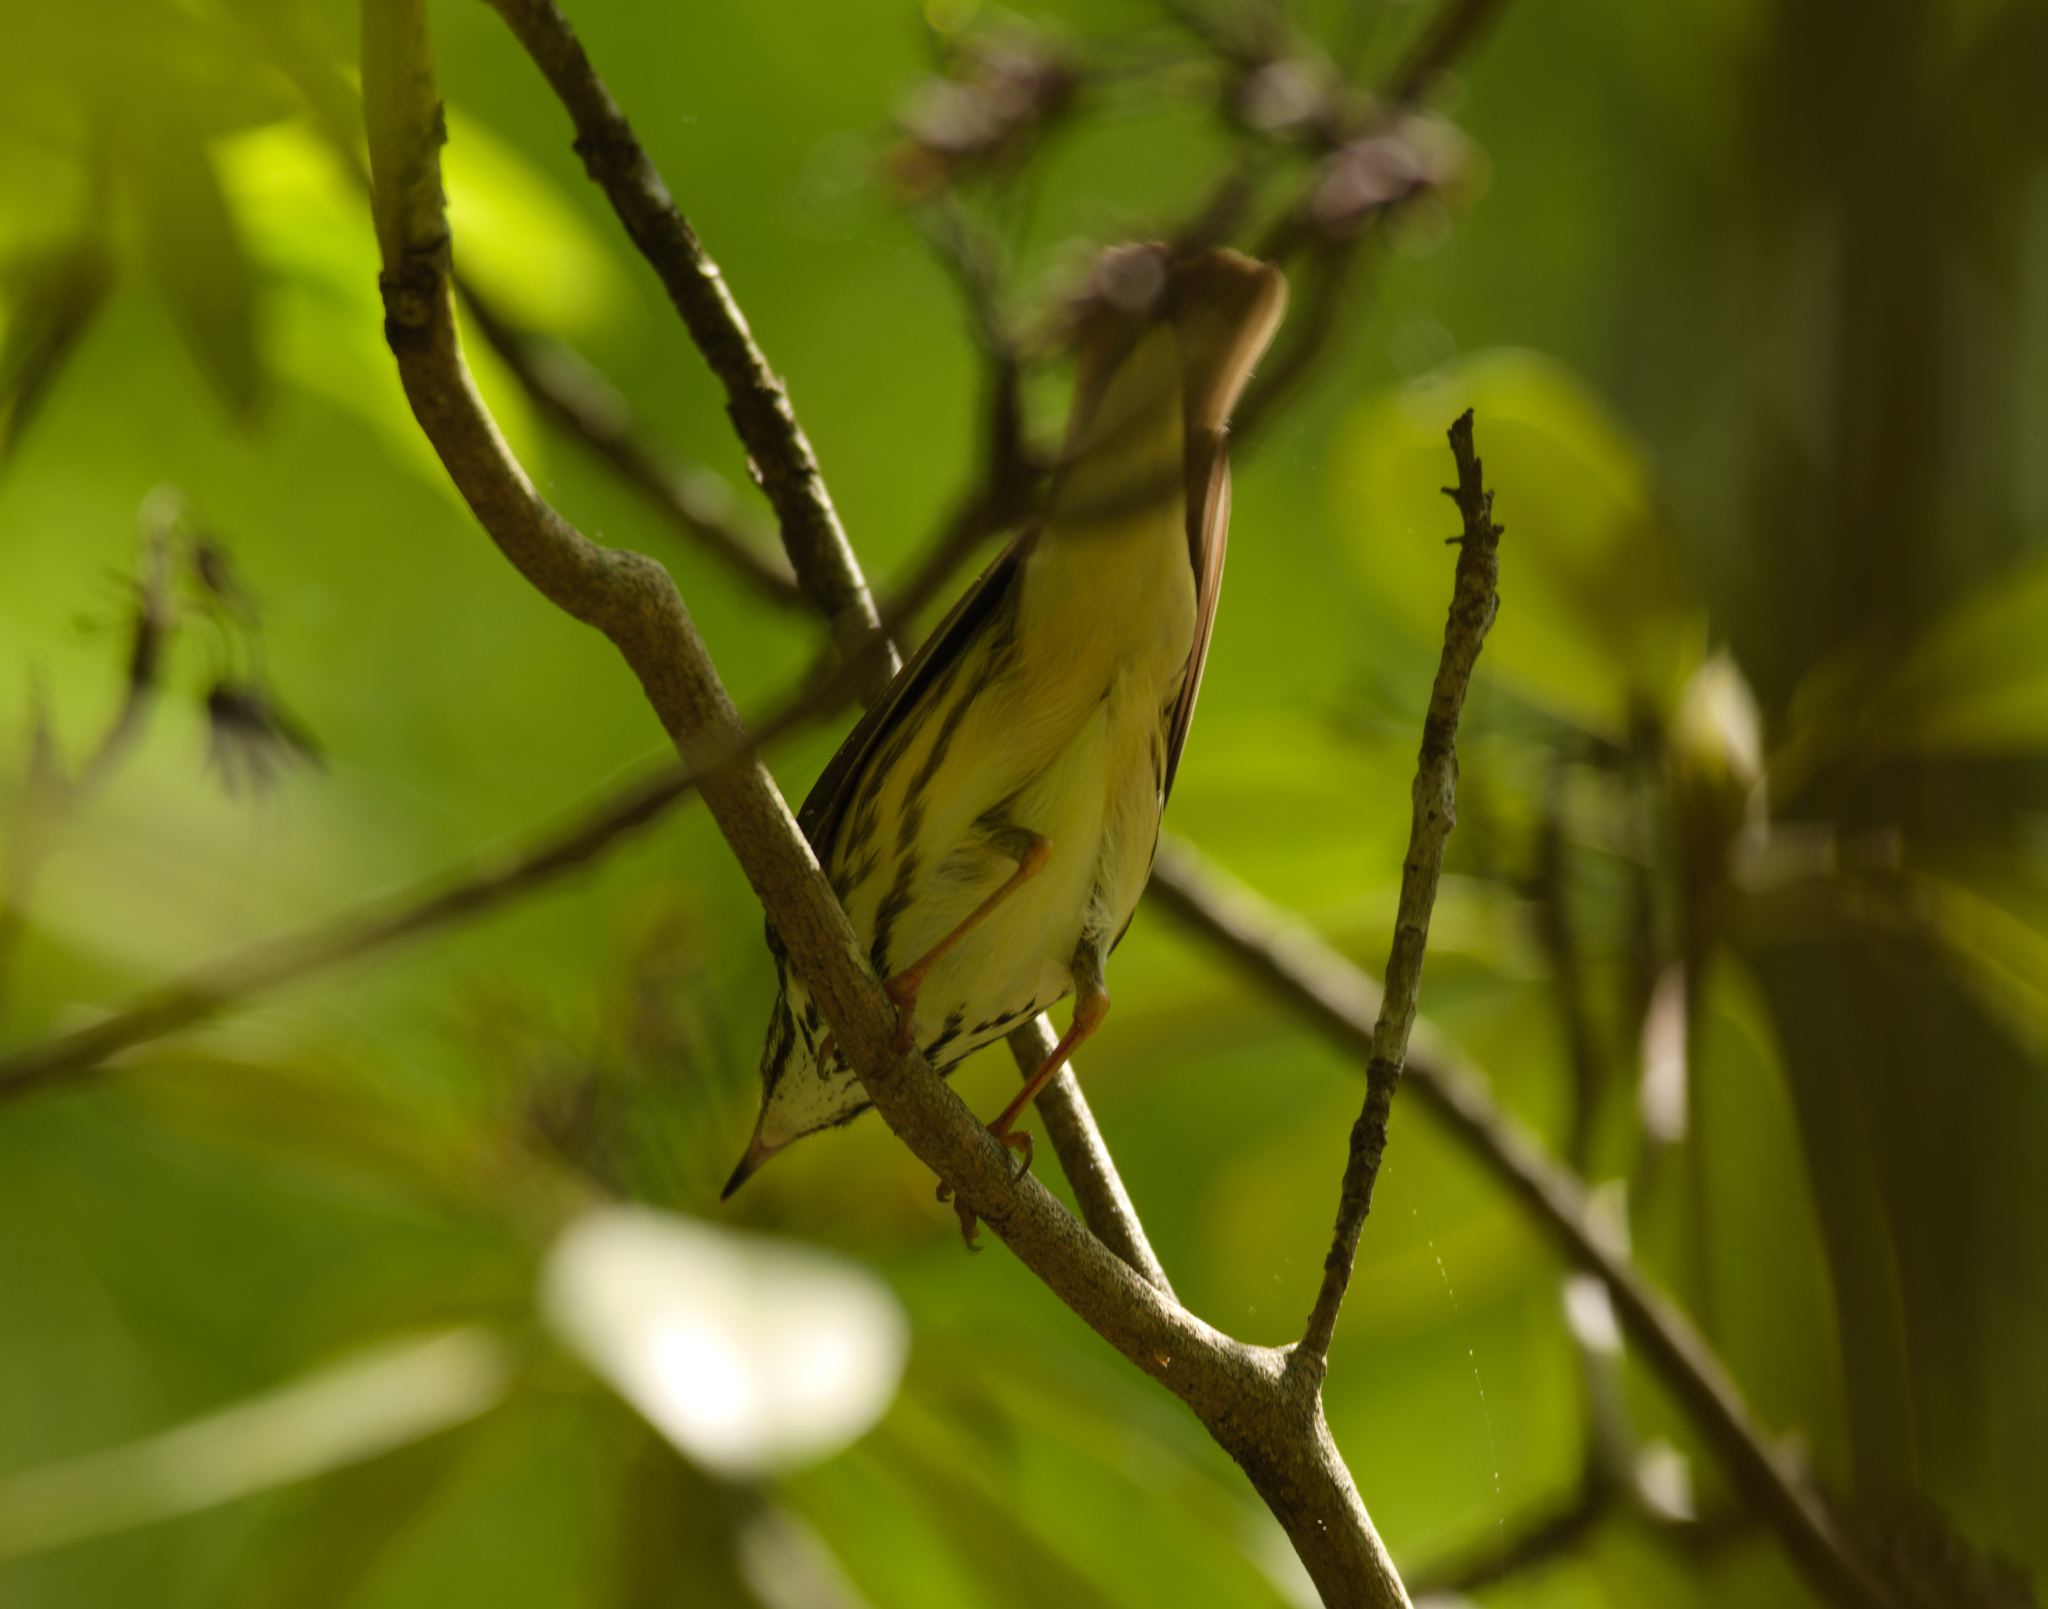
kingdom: Animalia
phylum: Chordata
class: Aves
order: Passeriformes
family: Parulidae
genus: Parkesia
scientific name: Parkesia motacilla
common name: Louisiana waterthrush
